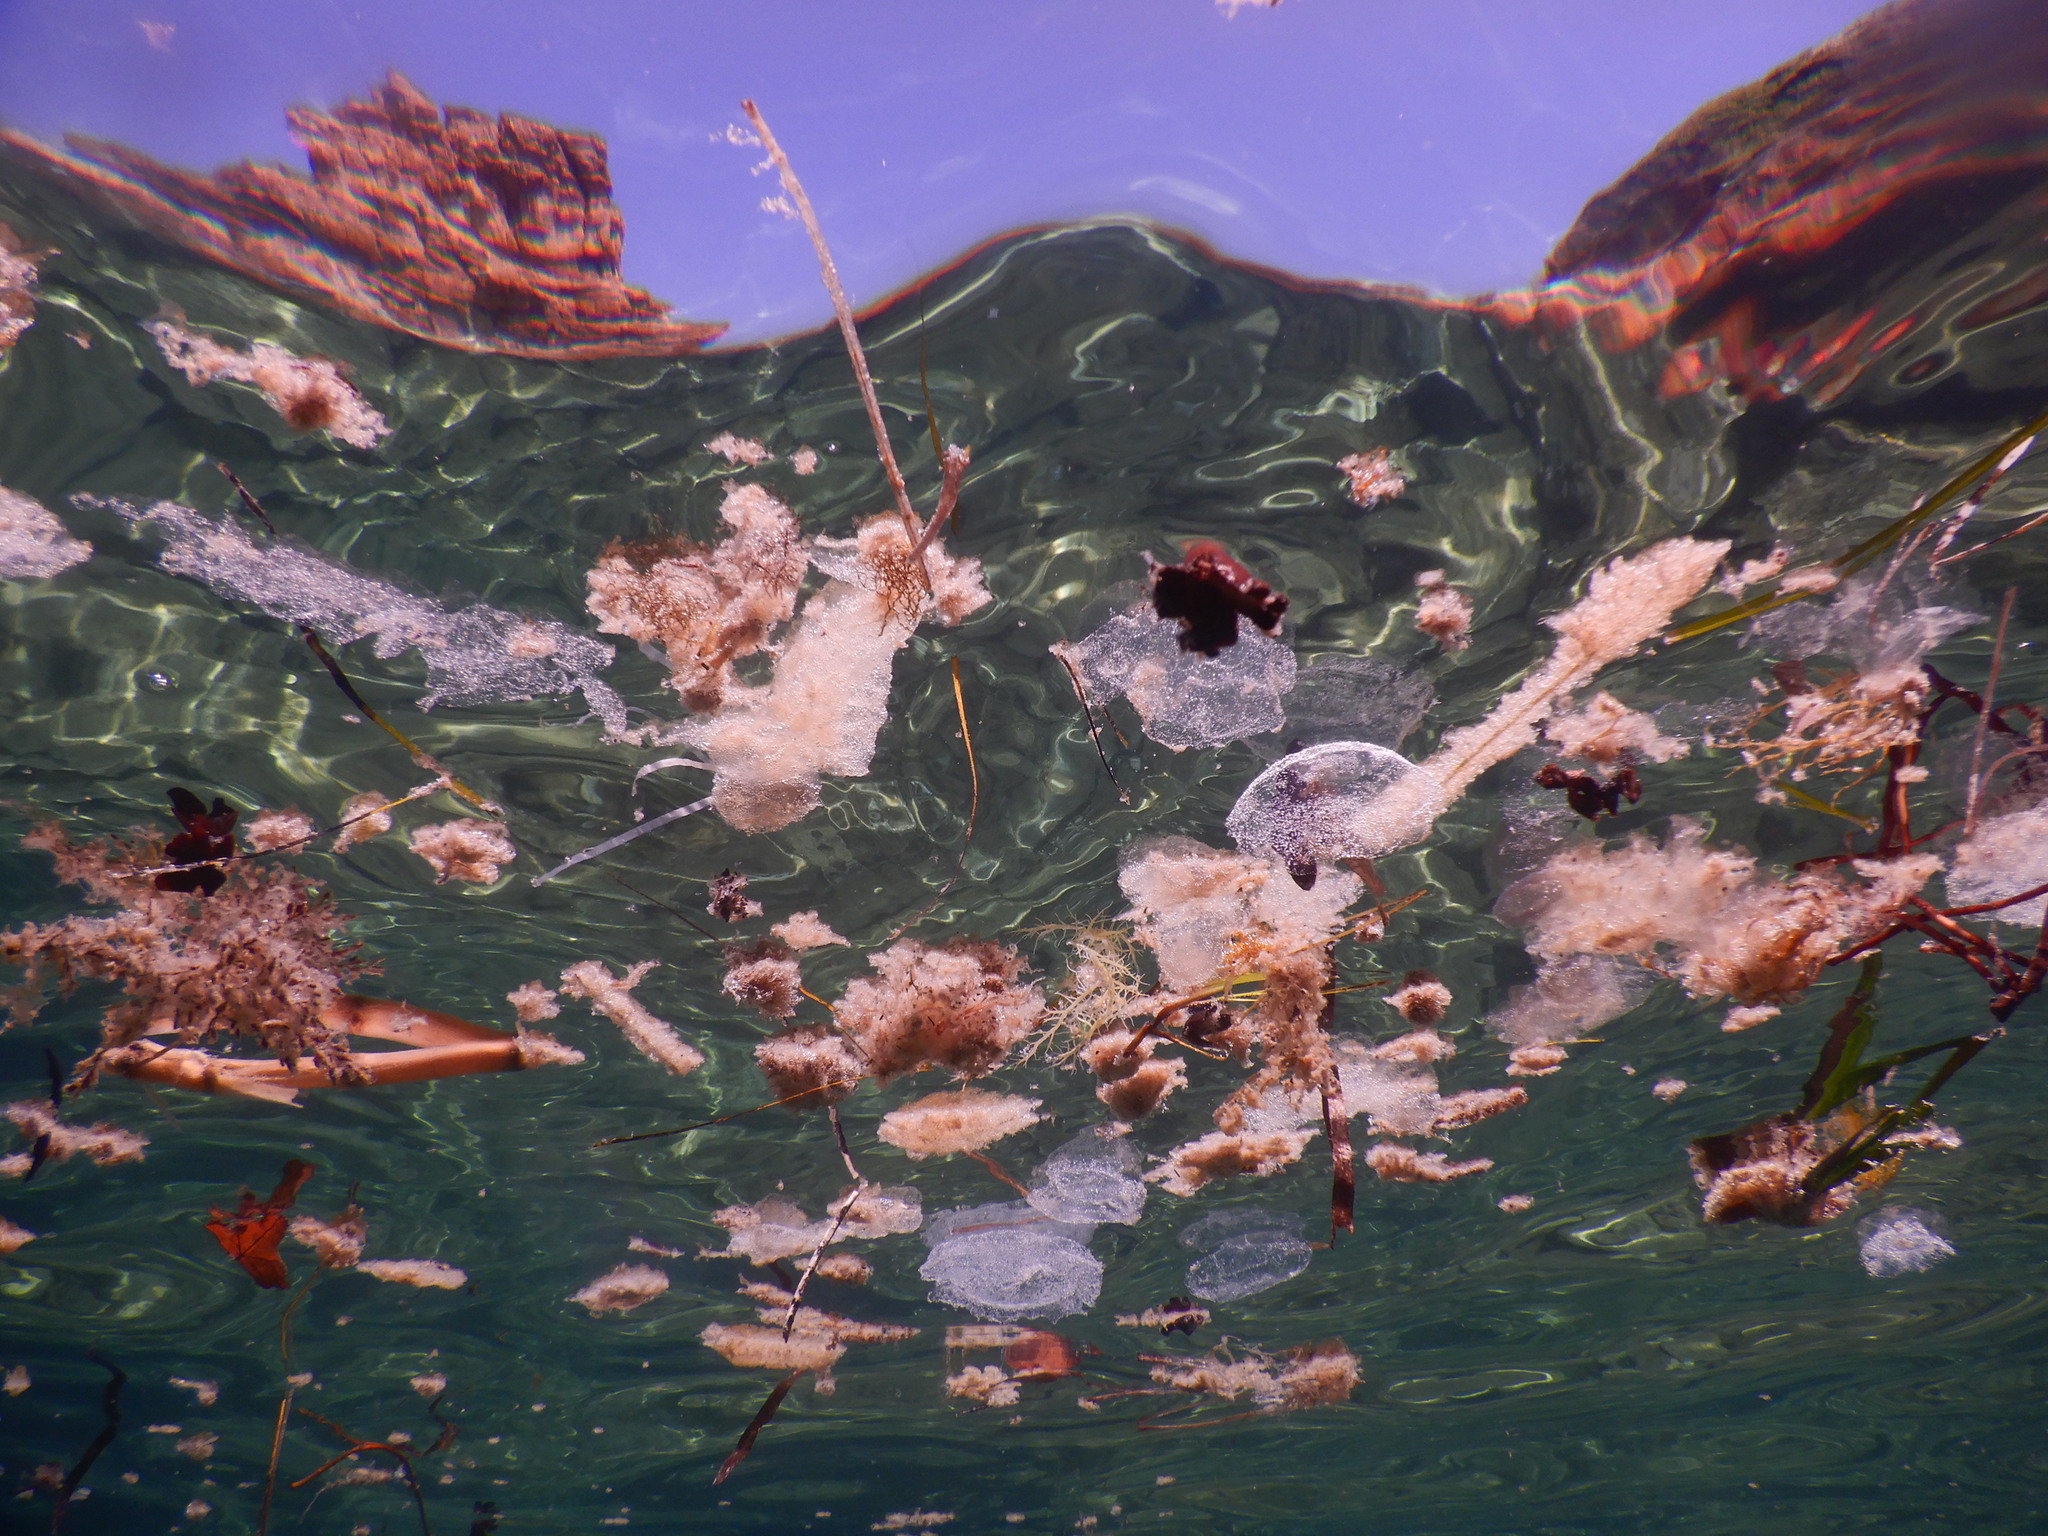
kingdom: Animalia
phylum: Cnidaria
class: Scyphozoa
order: Semaeostomeae
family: Pelagiidae
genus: Chrysaora
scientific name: Chrysaora hysoscella
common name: Compass jellyfish
